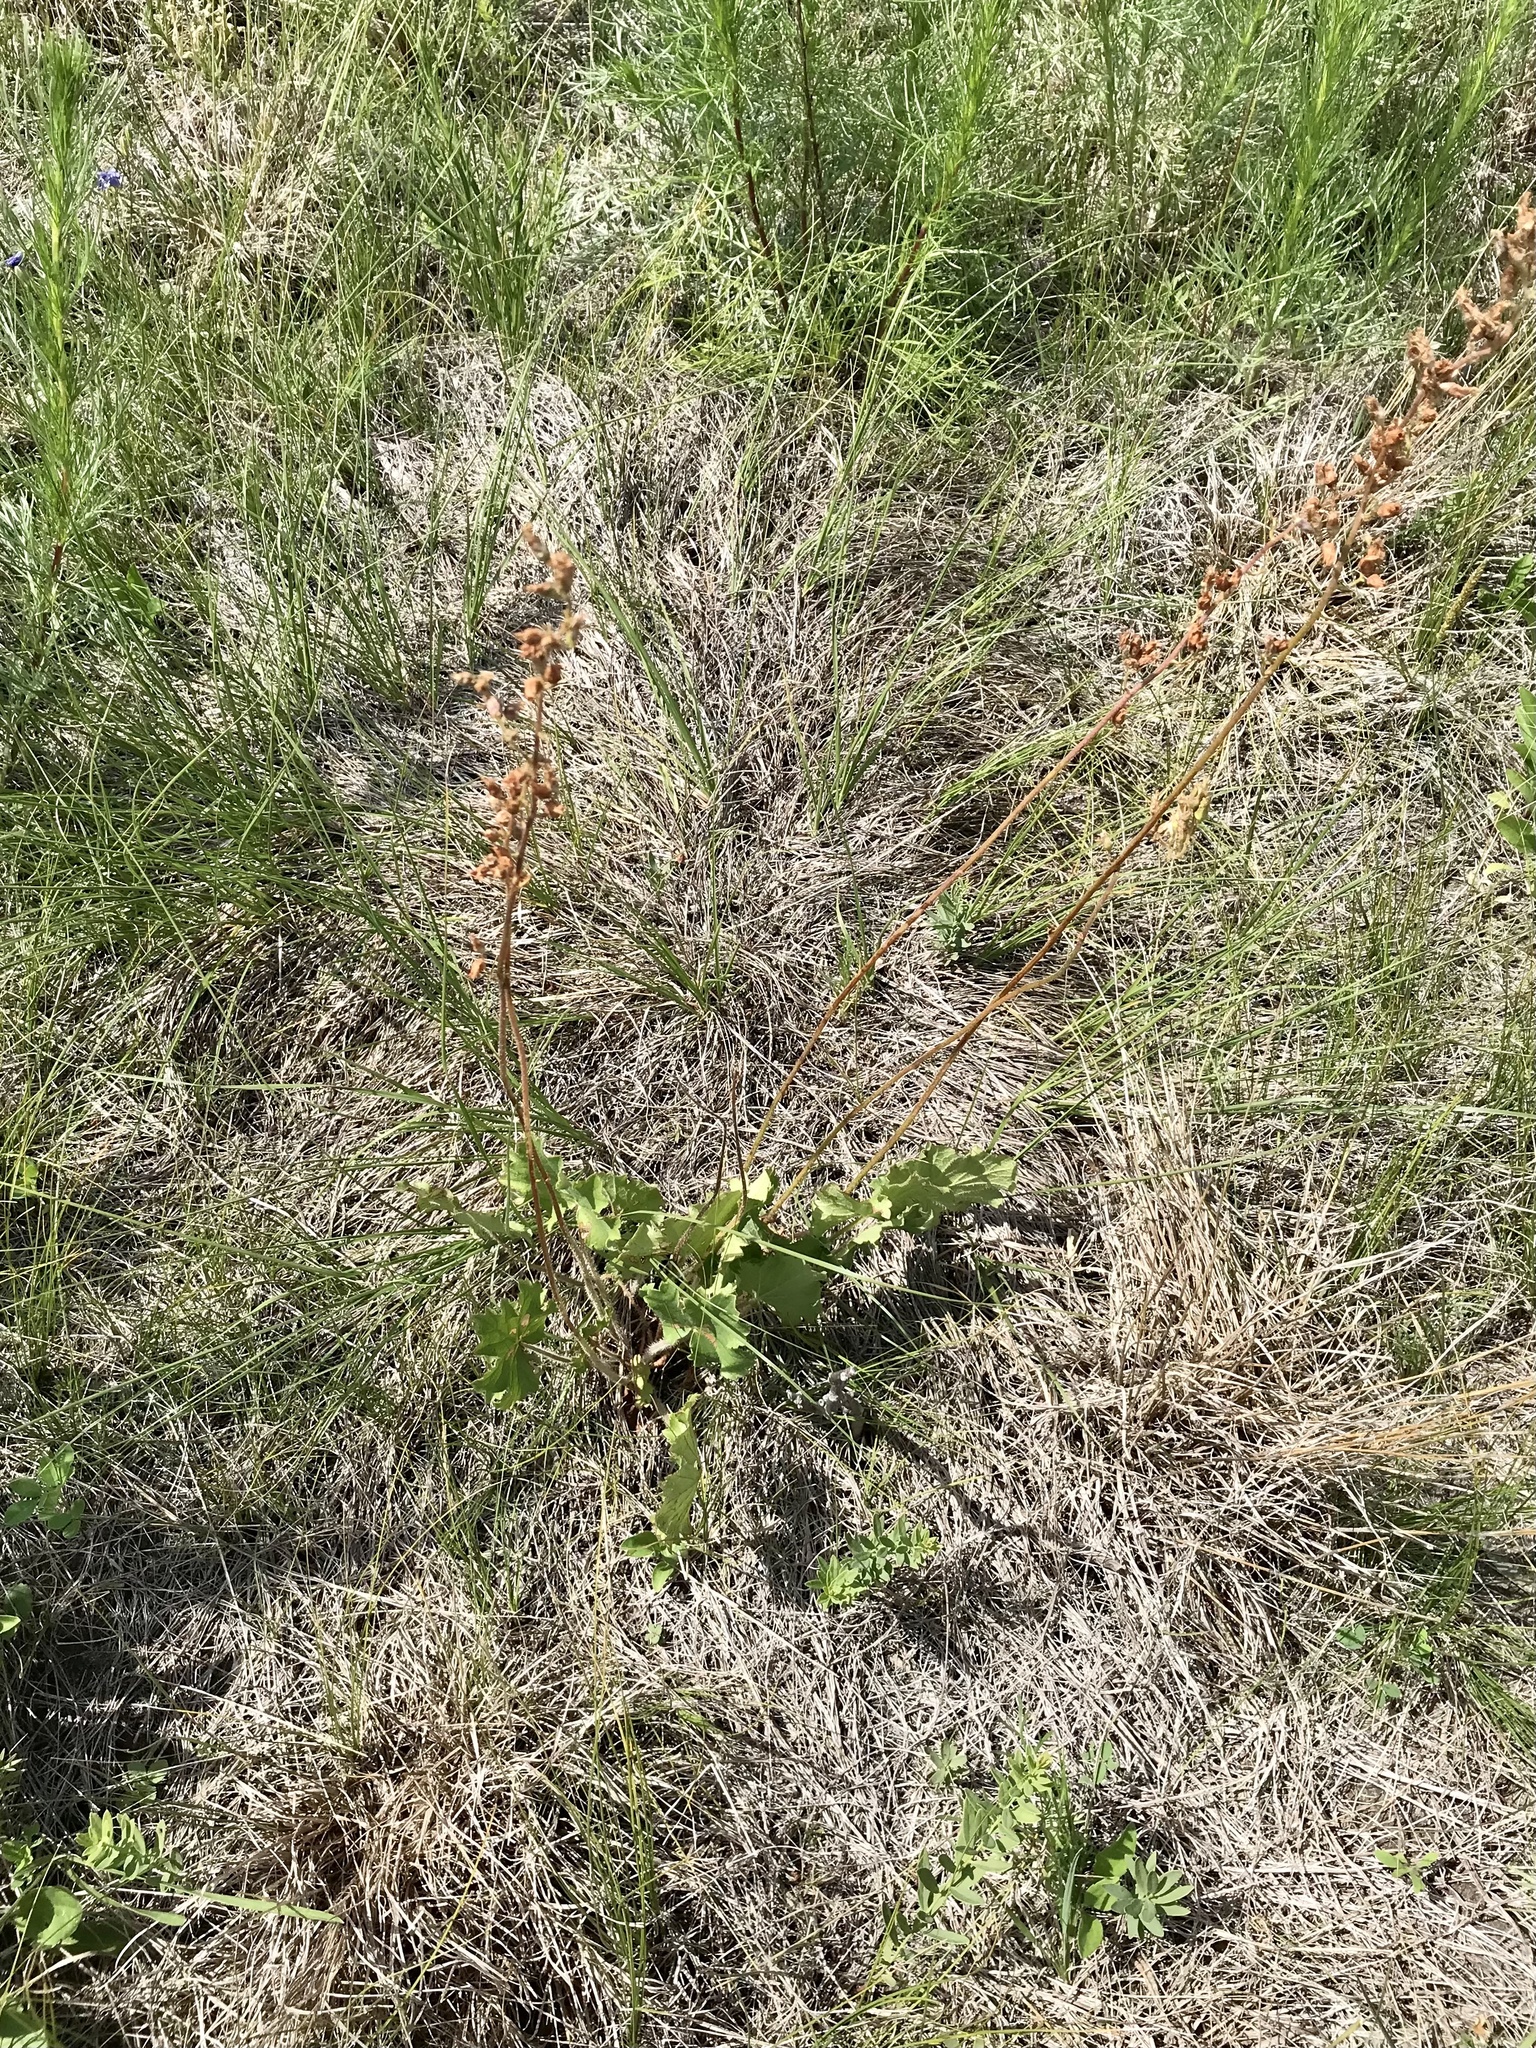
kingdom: Plantae
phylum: Tracheophyta
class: Magnoliopsida
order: Saxifragales
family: Saxifragaceae
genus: Heuchera
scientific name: Heuchera richardsonii
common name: Richardson's alumroot
